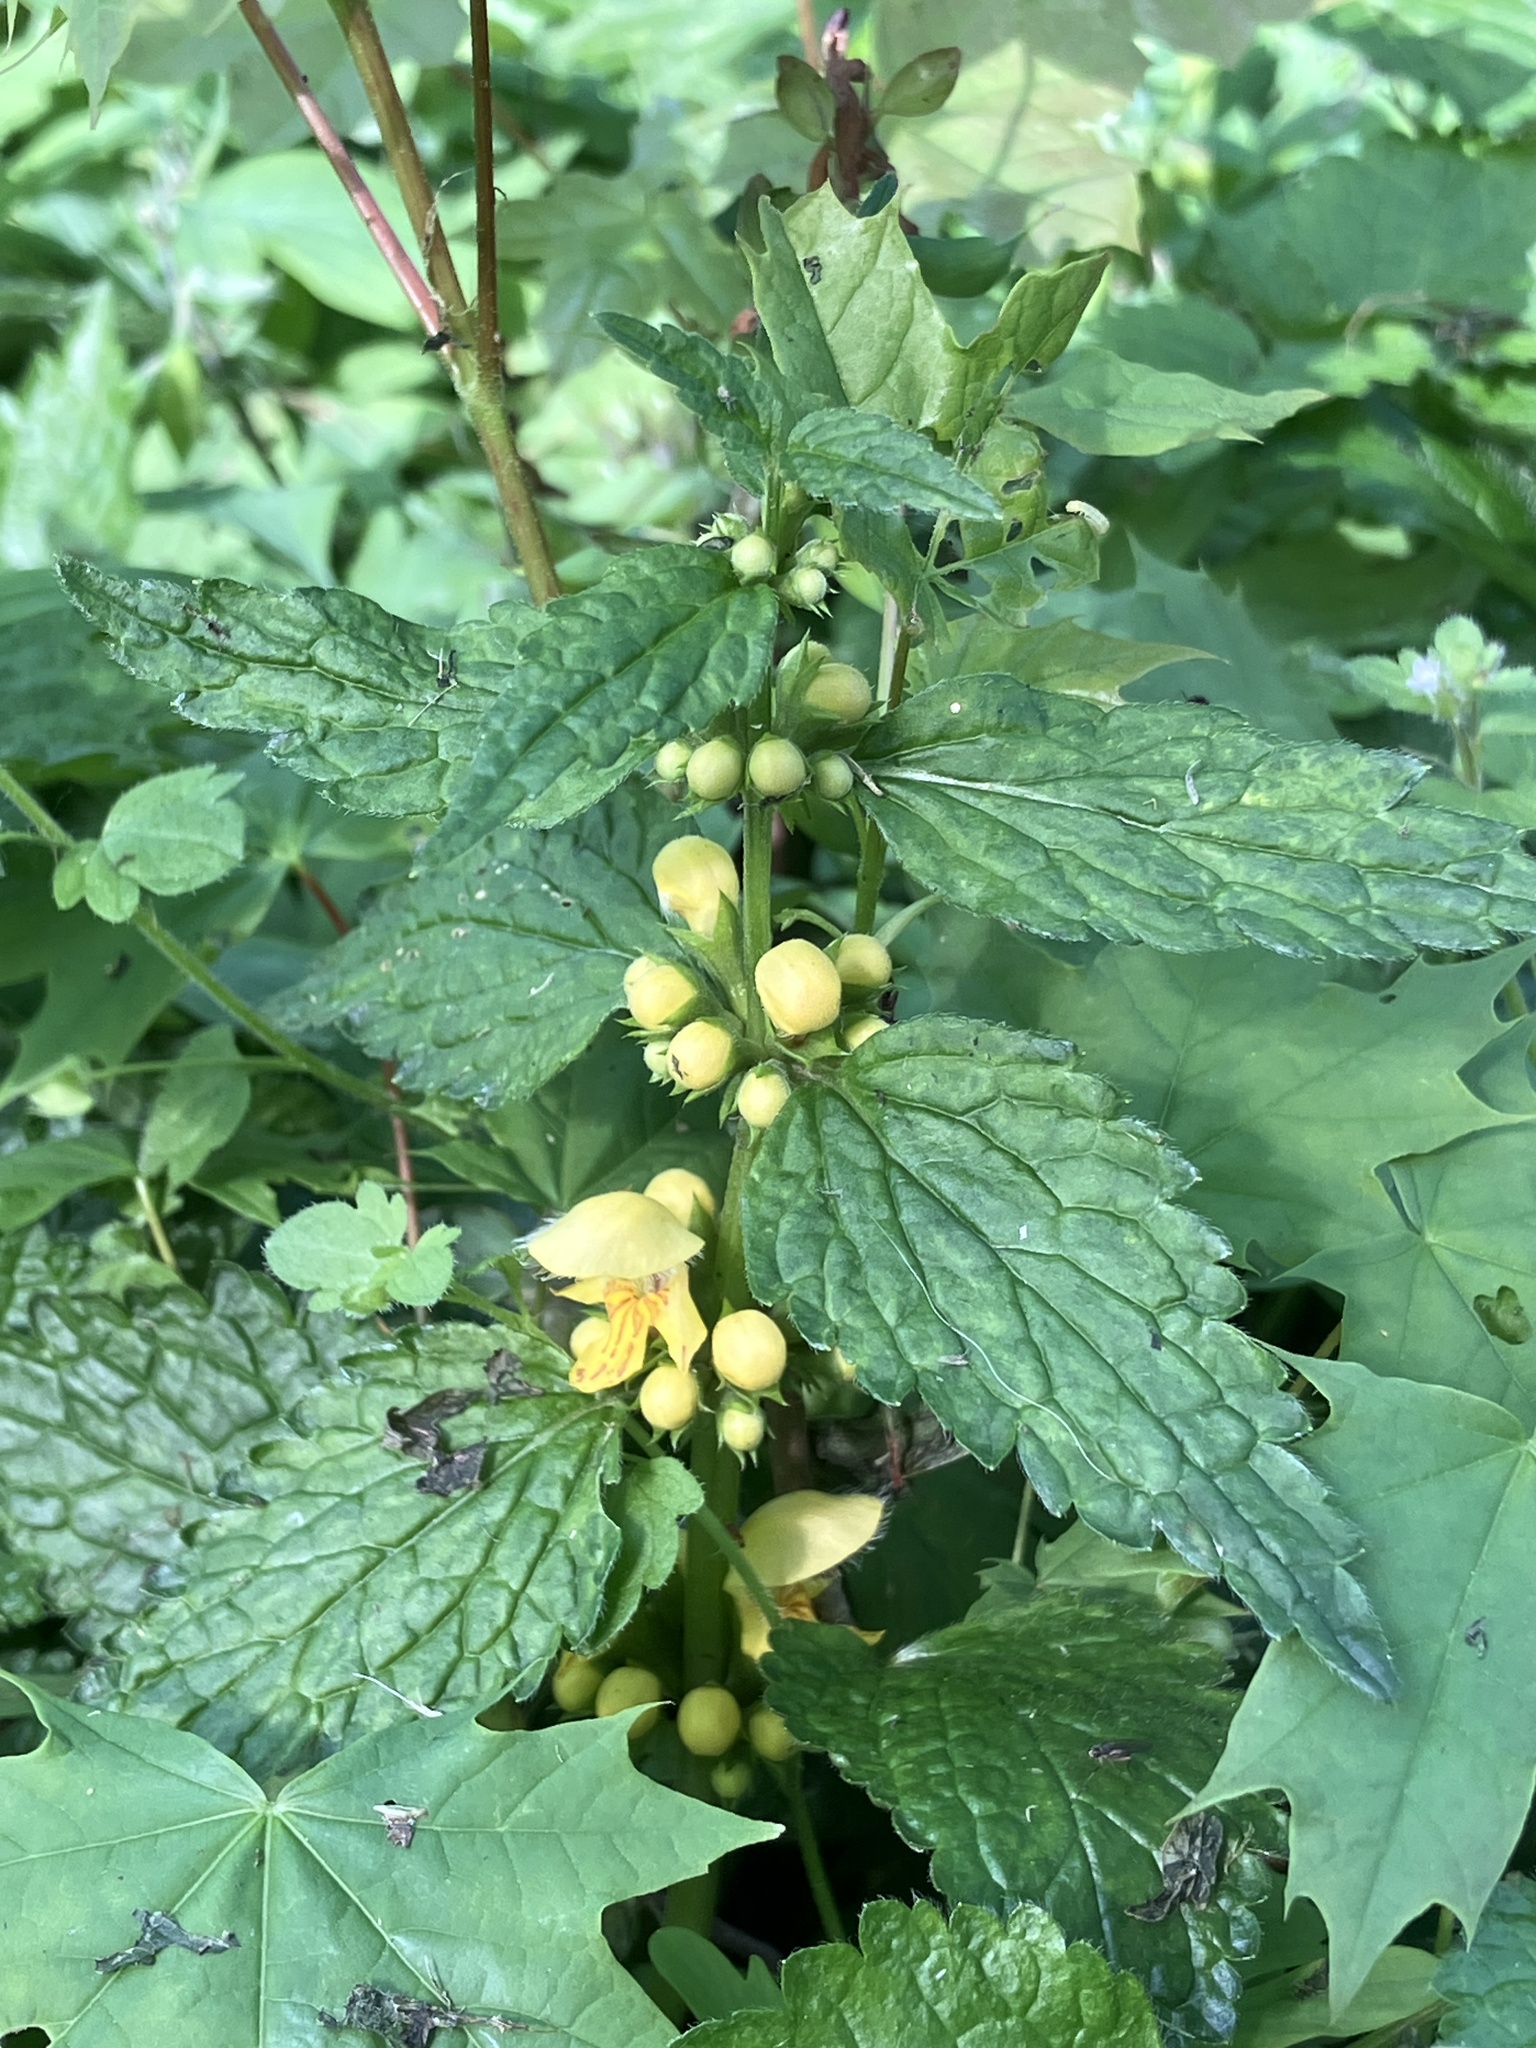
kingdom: Plantae
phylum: Tracheophyta
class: Magnoliopsida
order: Lamiales
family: Lamiaceae
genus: Lamium
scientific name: Lamium galeobdolon
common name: Yellow archangel
